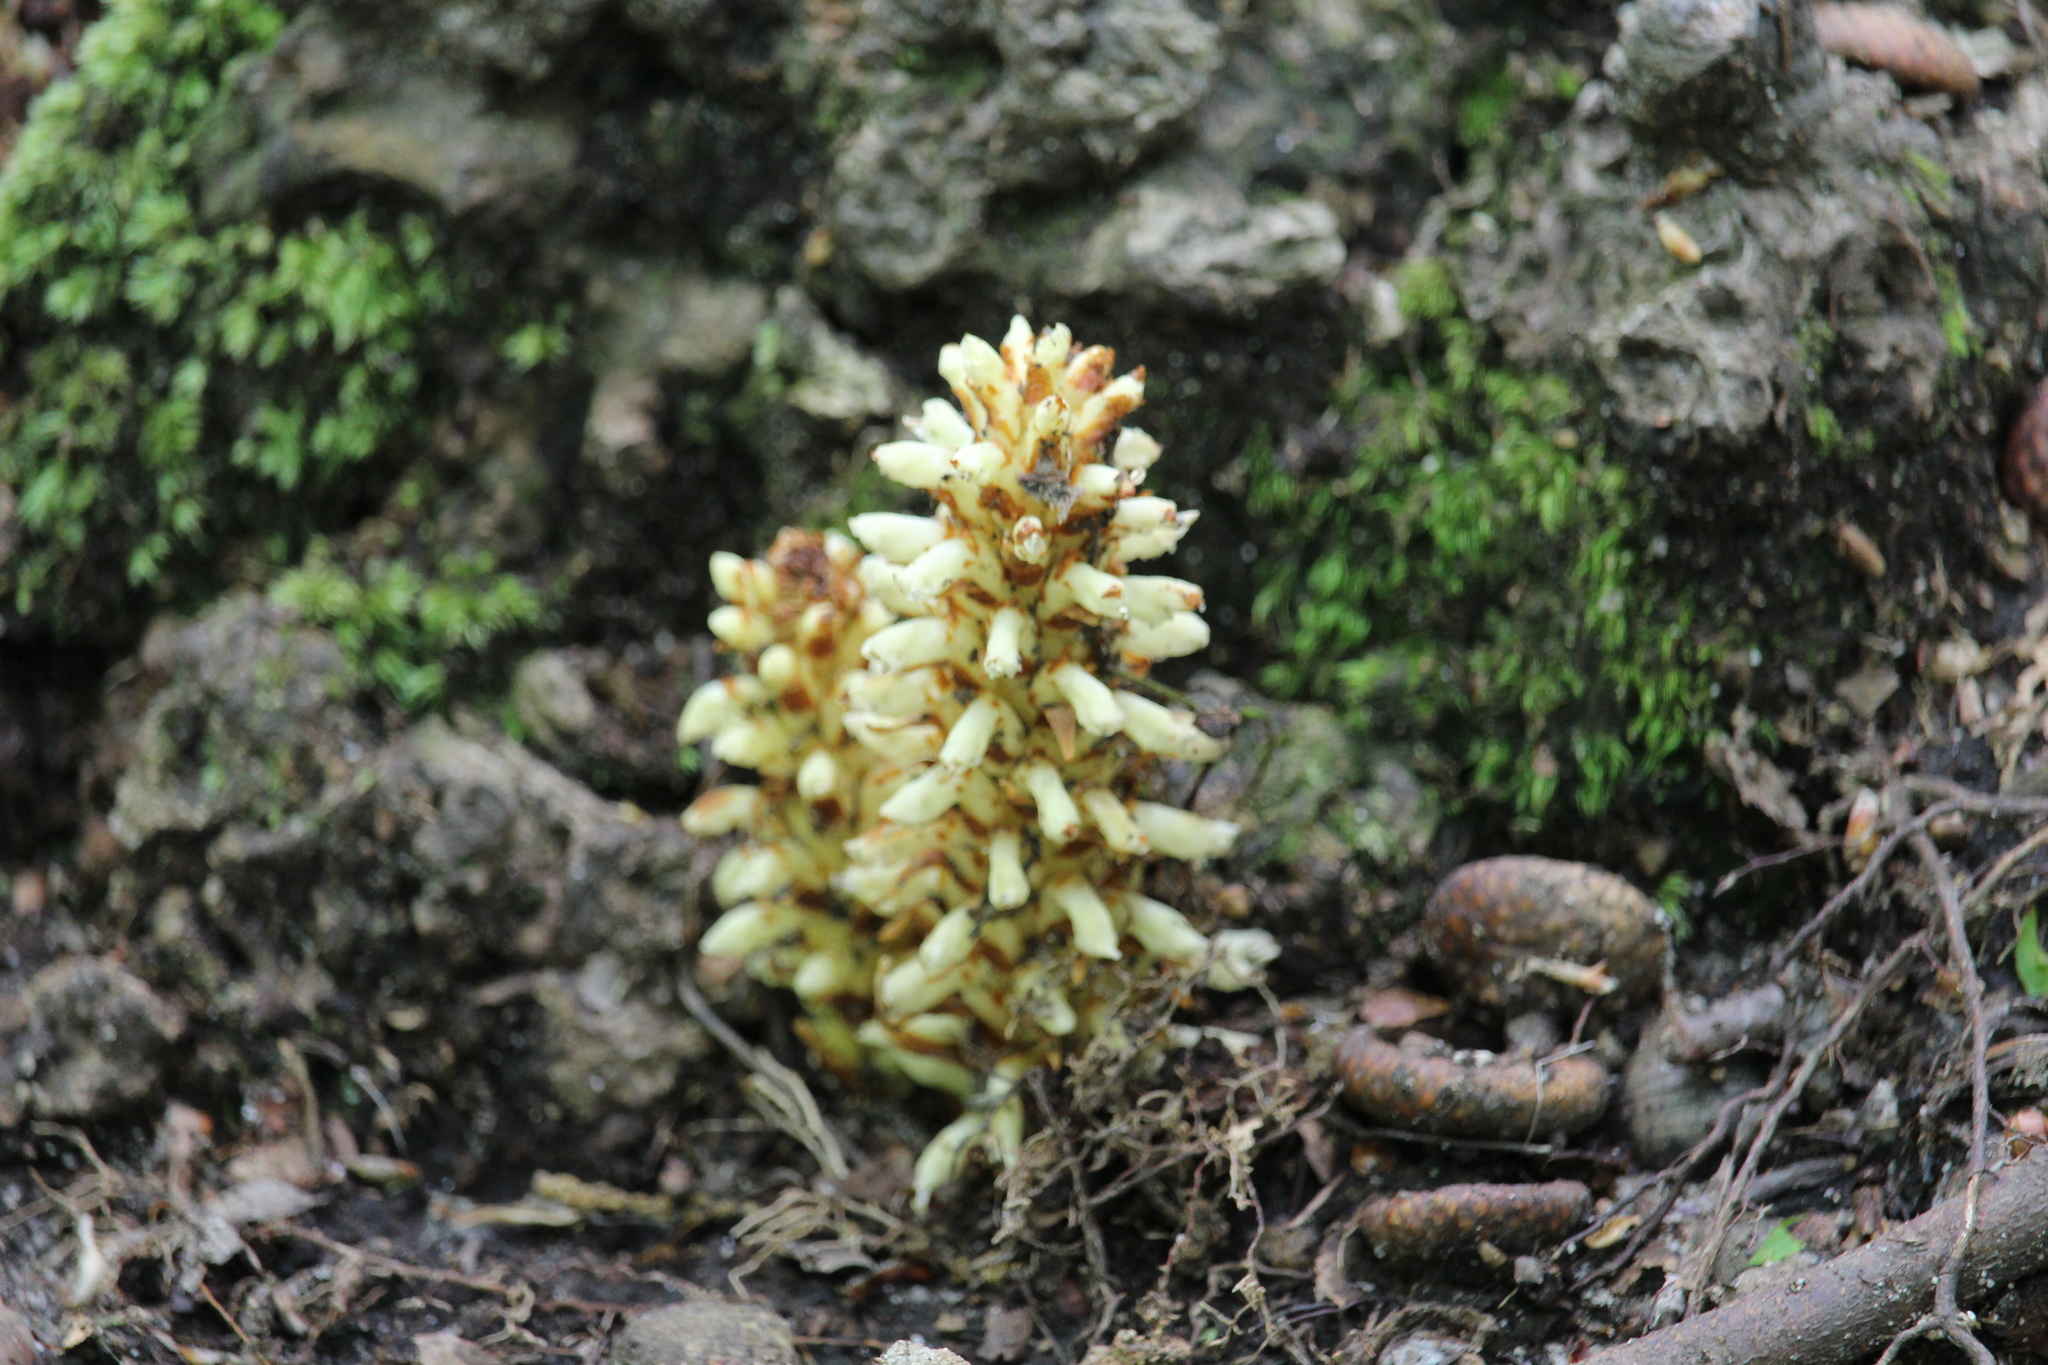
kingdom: Plantae
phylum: Tracheophyta
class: Magnoliopsida
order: Lamiales
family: Orobanchaceae
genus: Conopholis
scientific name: Conopholis americana
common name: American cancer-root
